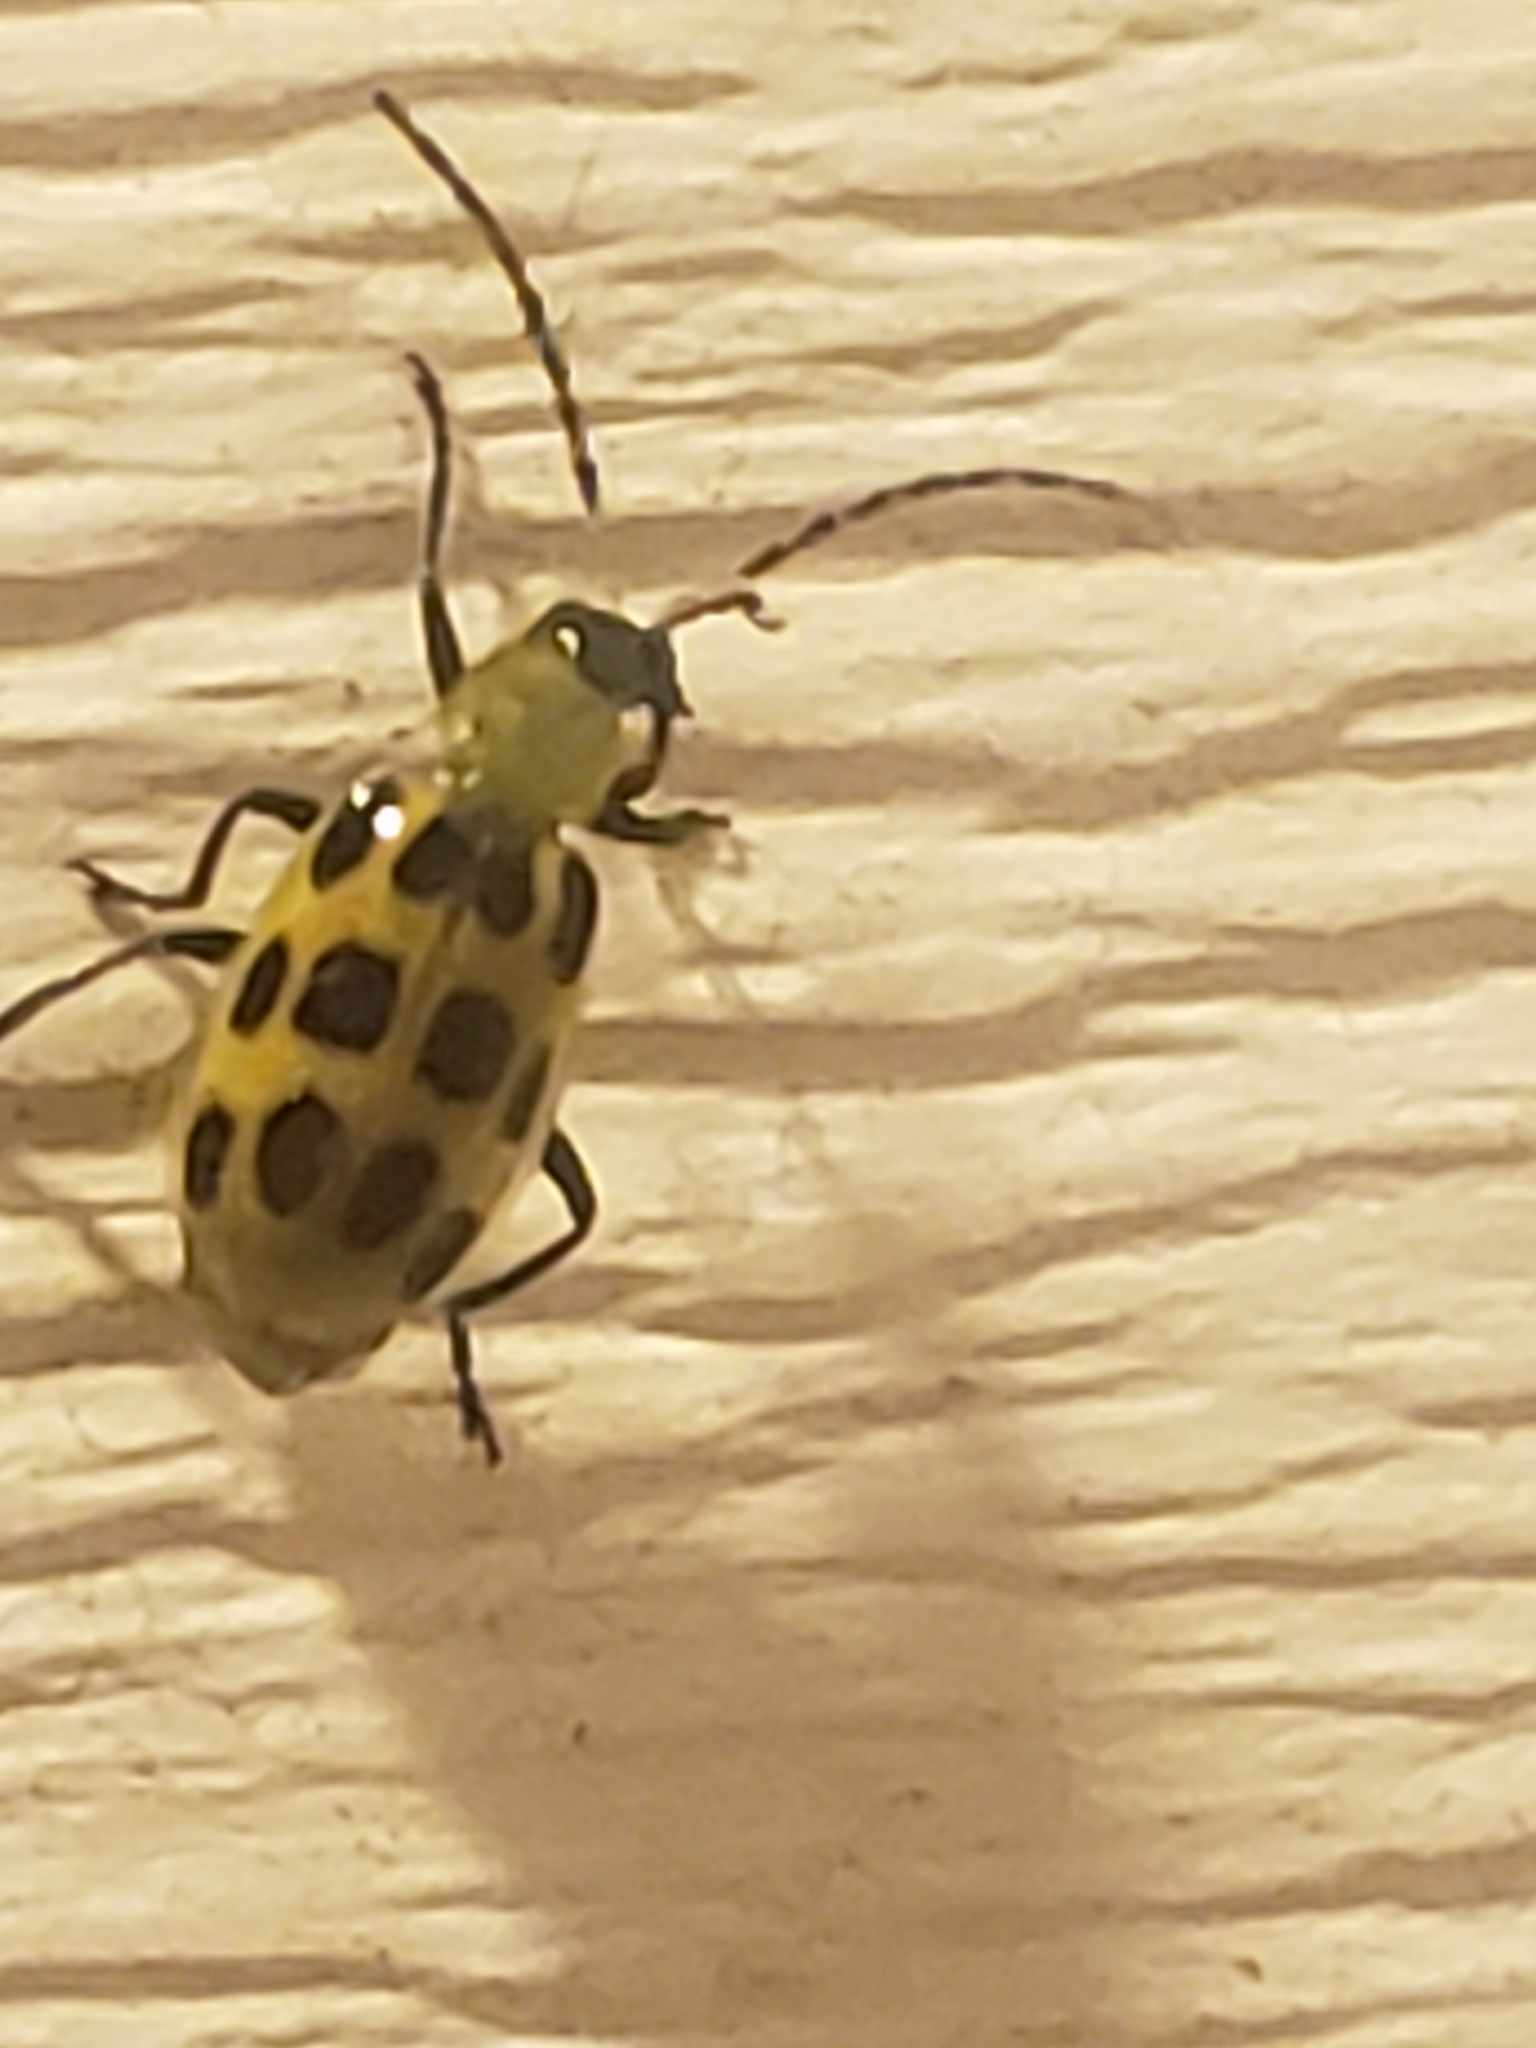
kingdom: Animalia
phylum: Arthropoda
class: Insecta
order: Coleoptera
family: Chrysomelidae
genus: Diabrotica
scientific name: Diabrotica undecimpunctata
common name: Spotted cucumber beetle
